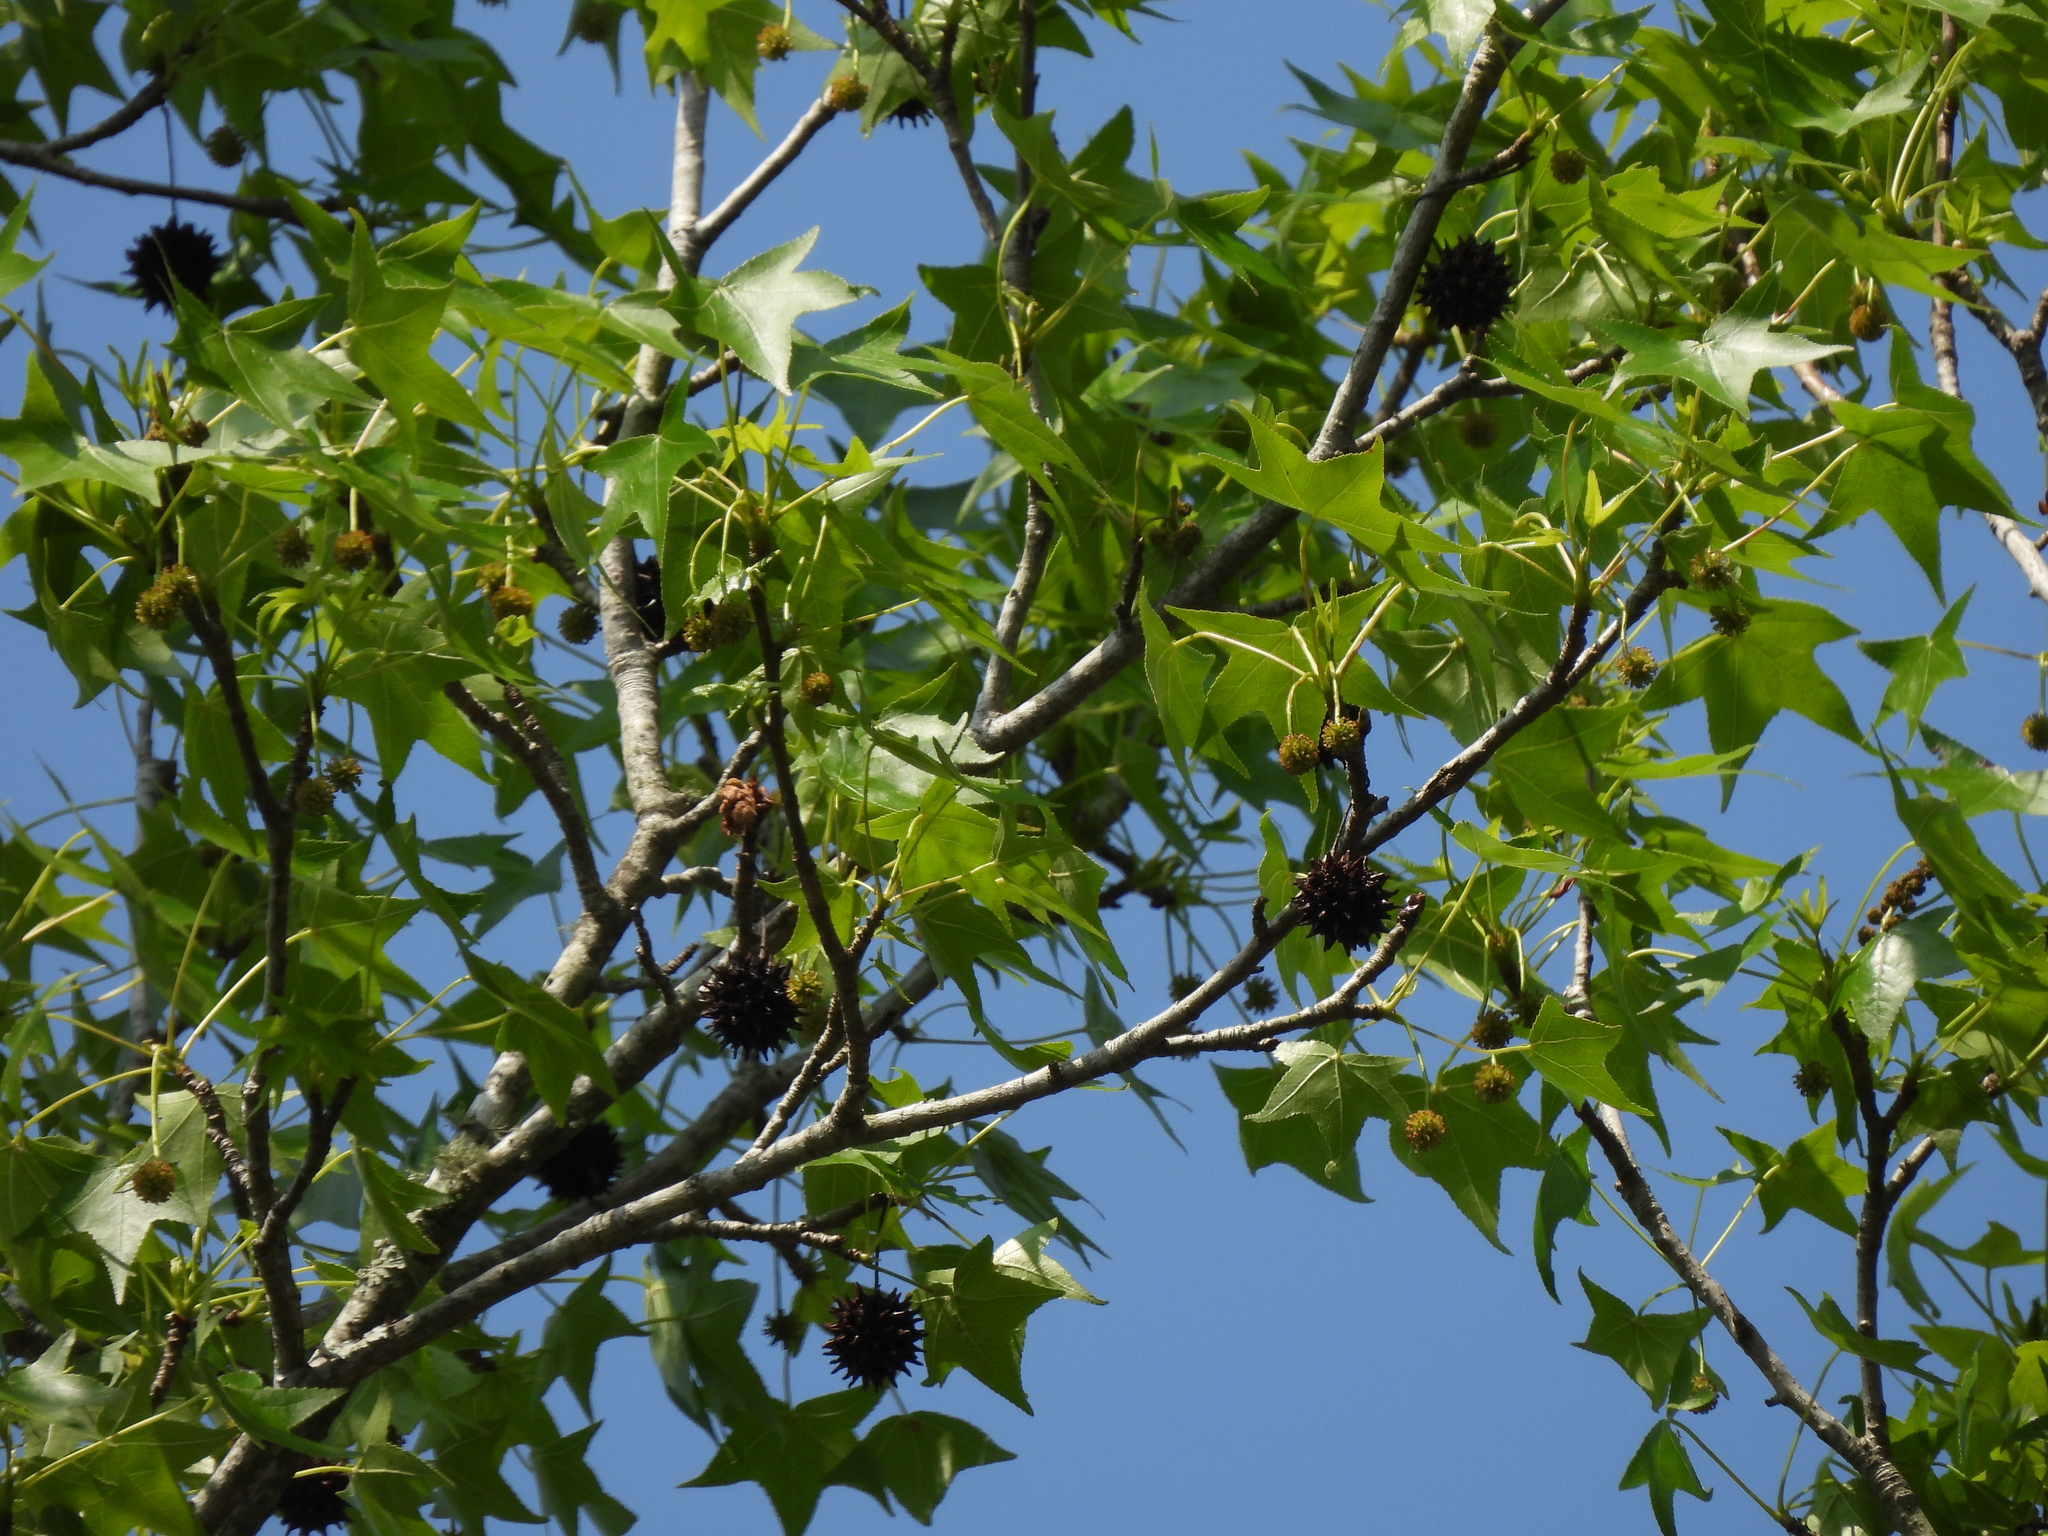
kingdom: Plantae
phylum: Tracheophyta
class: Magnoliopsida
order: Saxifragales
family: Altingiaceae
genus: Liquidambar
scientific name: Liquidambar styraciflua
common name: Sweet gum
